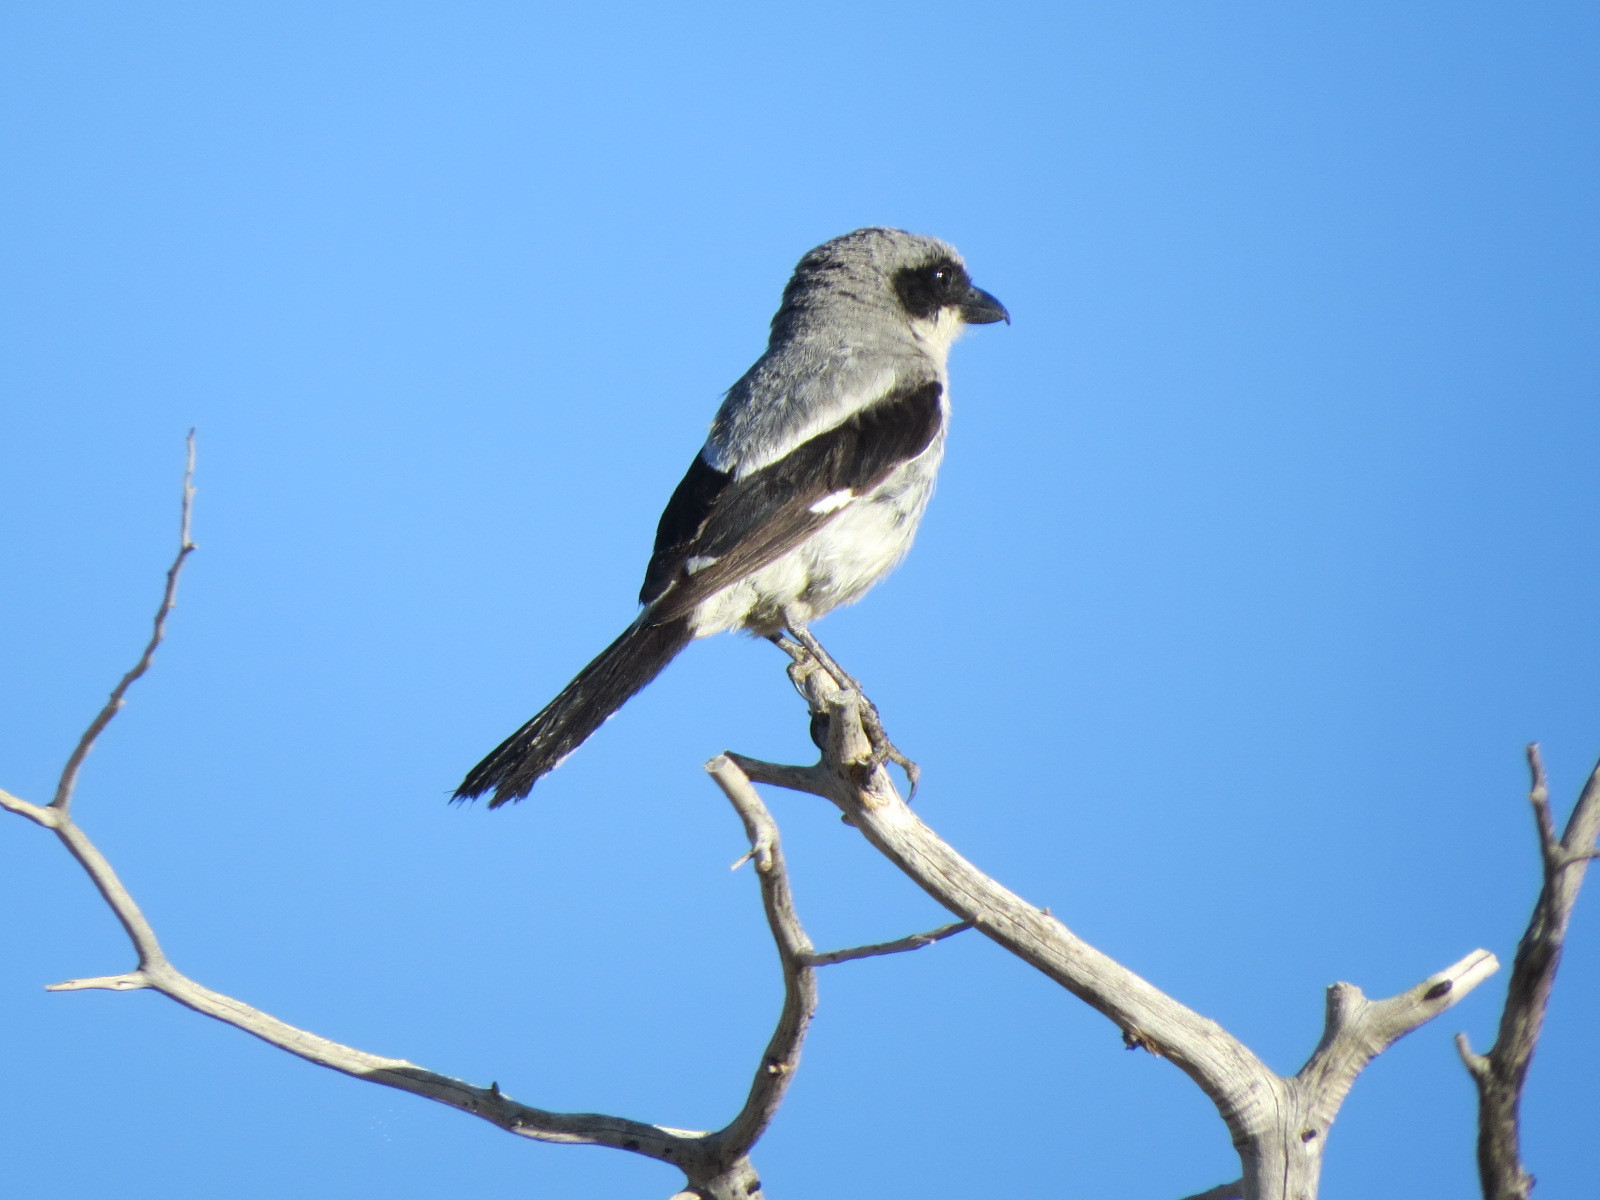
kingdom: Animalia
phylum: Chordata
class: Aves
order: Passeriformes
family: Laniidae
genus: Lanius
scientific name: Lanius ludovicianus
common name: Loggerhead shrike
